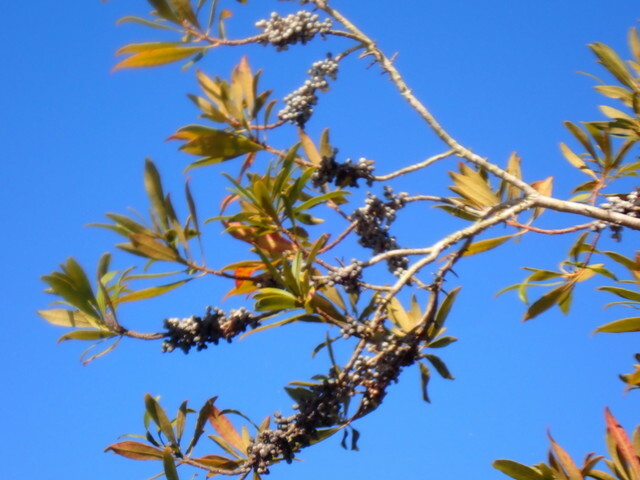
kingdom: Plantae
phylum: Tracheophyta
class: Magnoliopsida
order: Fagales
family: Myricaceae
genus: Morella
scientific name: Morella cerifera
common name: Wax myrtle
